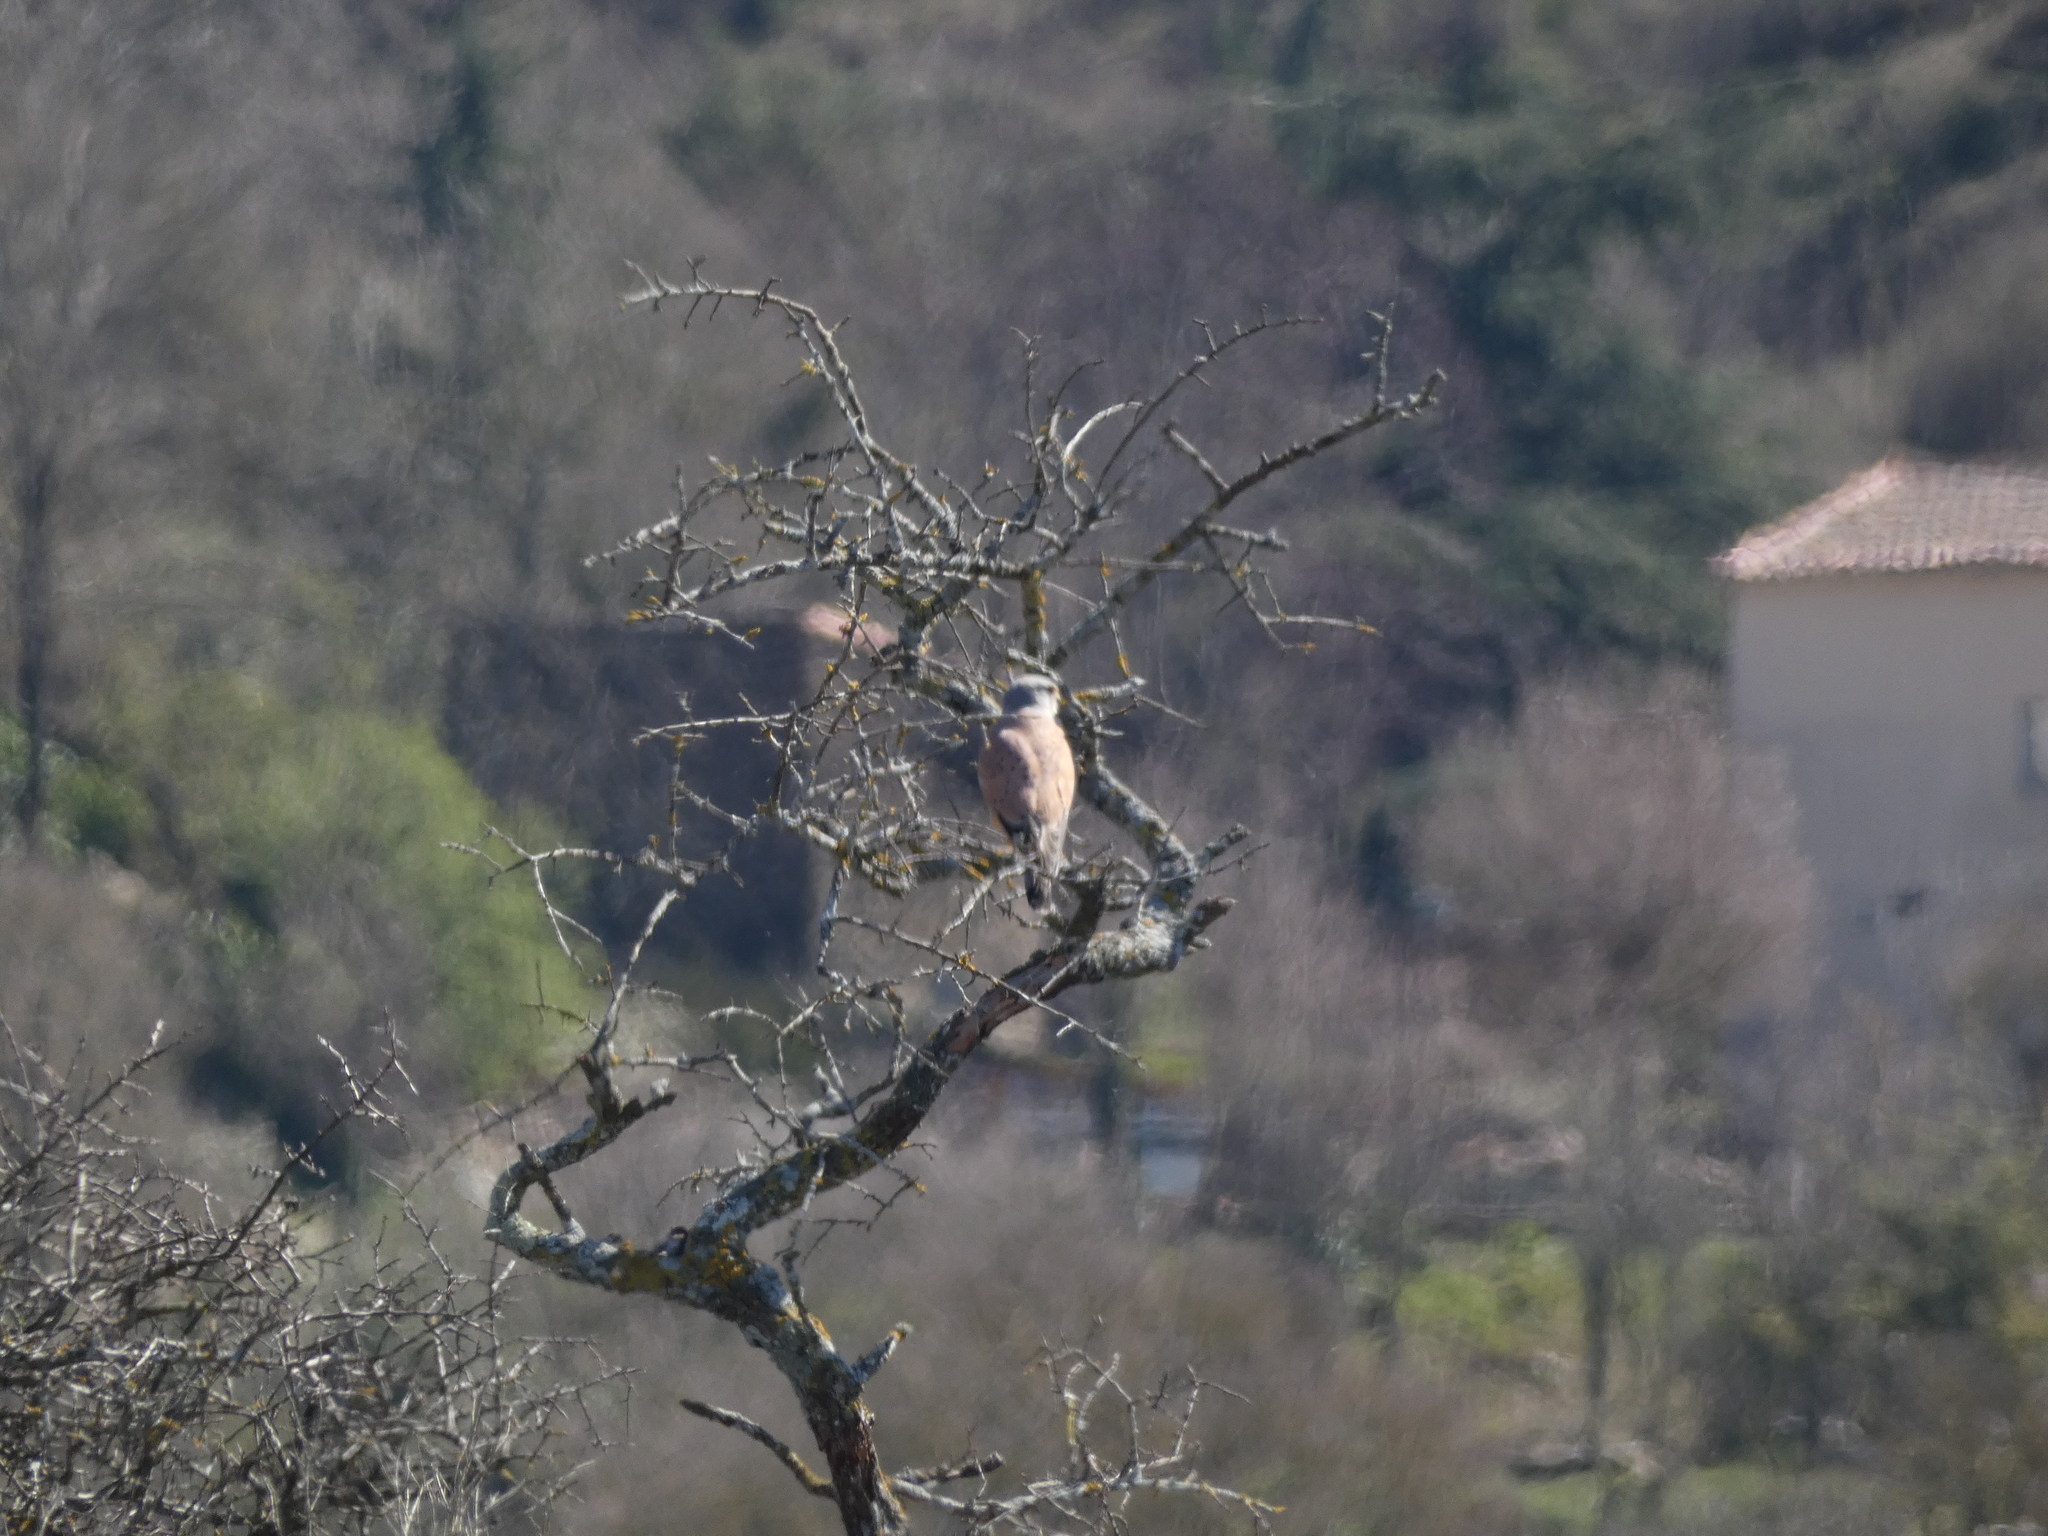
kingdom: Animalia
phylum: Chordata
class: Aves
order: Falconiformes
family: Falconidae
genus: Falco
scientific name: Falco tinnunculus
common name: Common kestrel
